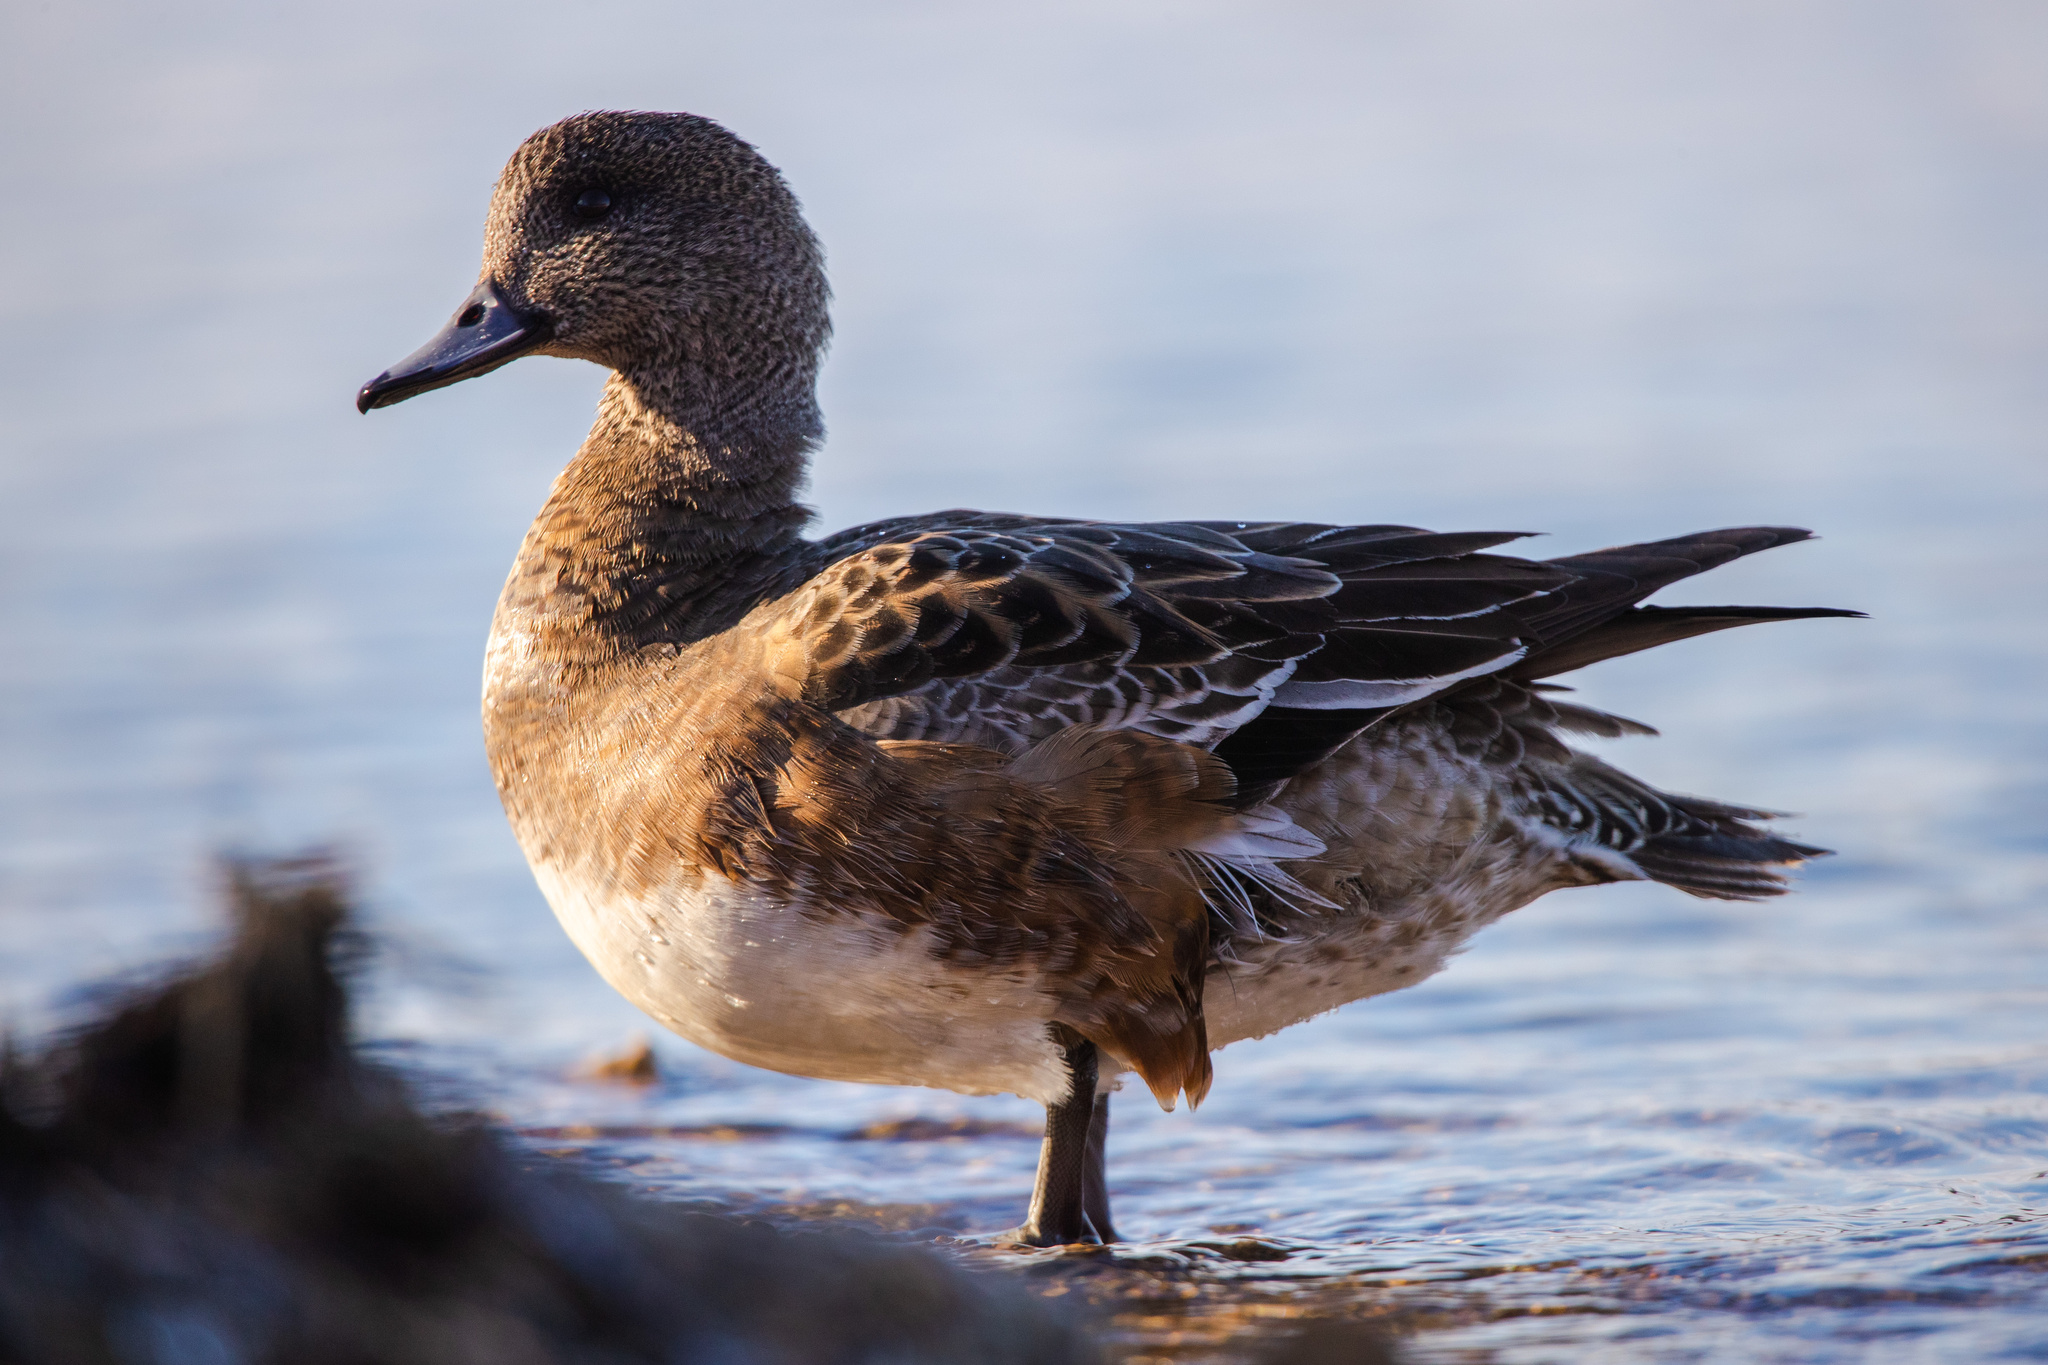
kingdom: Animalia
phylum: Chordata
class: Aves
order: Anseriformes
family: Anatidae
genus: Mareca
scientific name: Mareca americana
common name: American wigeon
